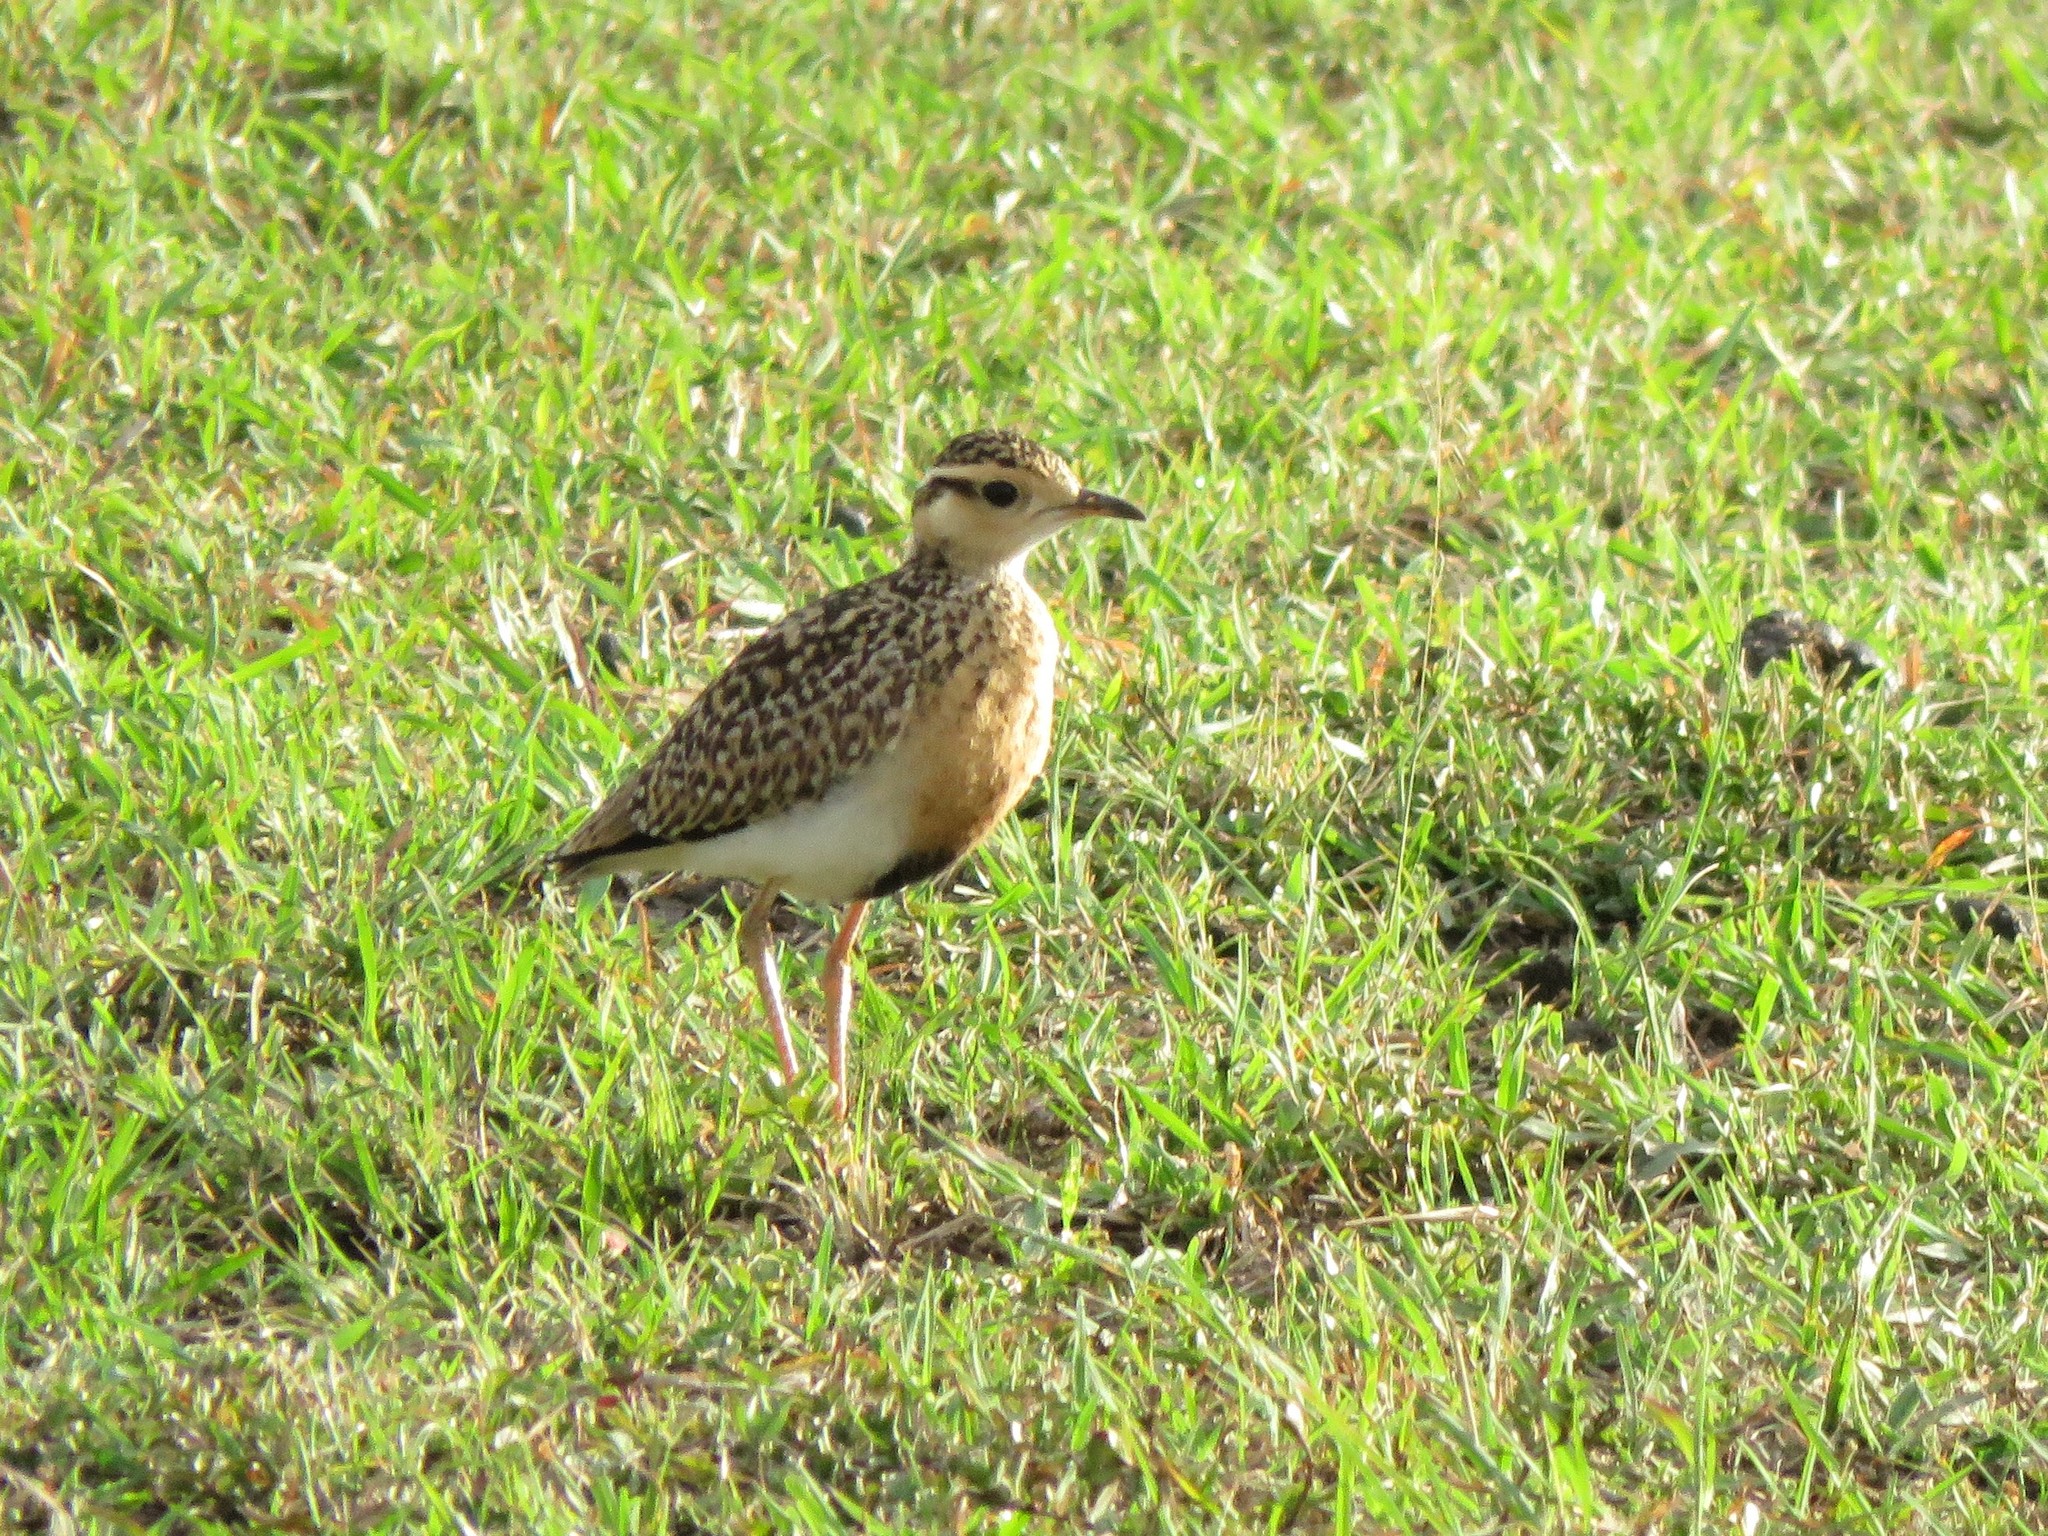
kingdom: Animalia
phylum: Chordata
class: Aves
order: Charadriiformes
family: Glareolidae
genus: Cursorius
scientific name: Cursorius temminckii
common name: Temminck's courser
